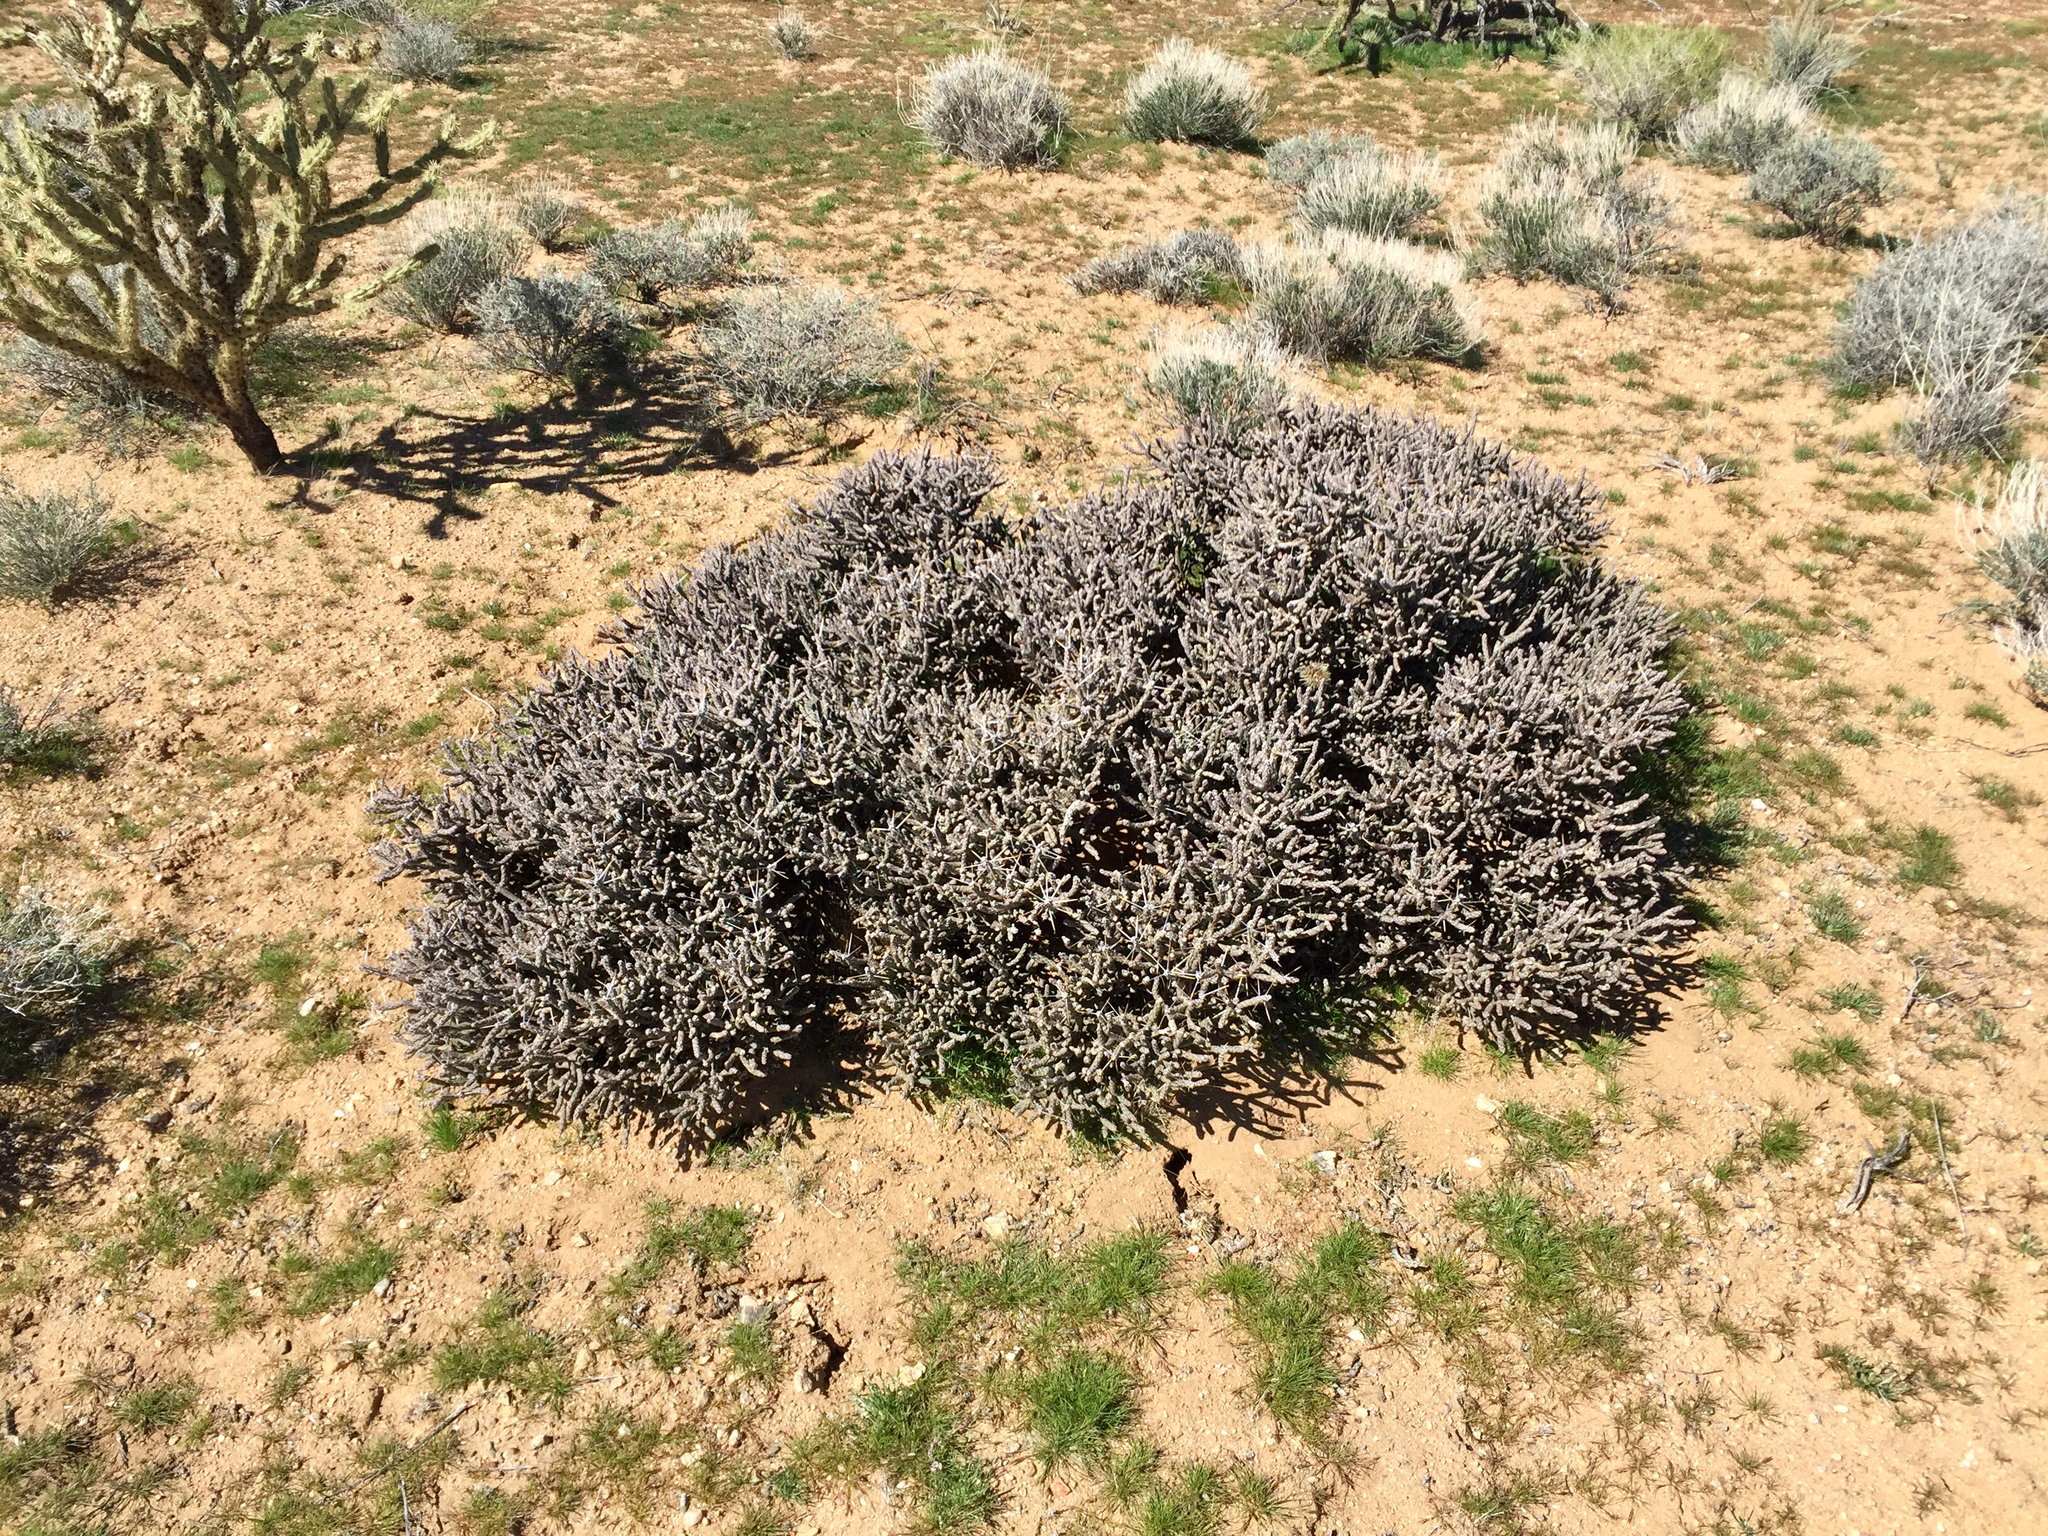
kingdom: Plantae
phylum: Tracheophyta
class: Magnoliopsida
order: Caryophyllales
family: Cactaceae
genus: Cylindropuntia
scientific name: Cylindropuntia ramosissima
